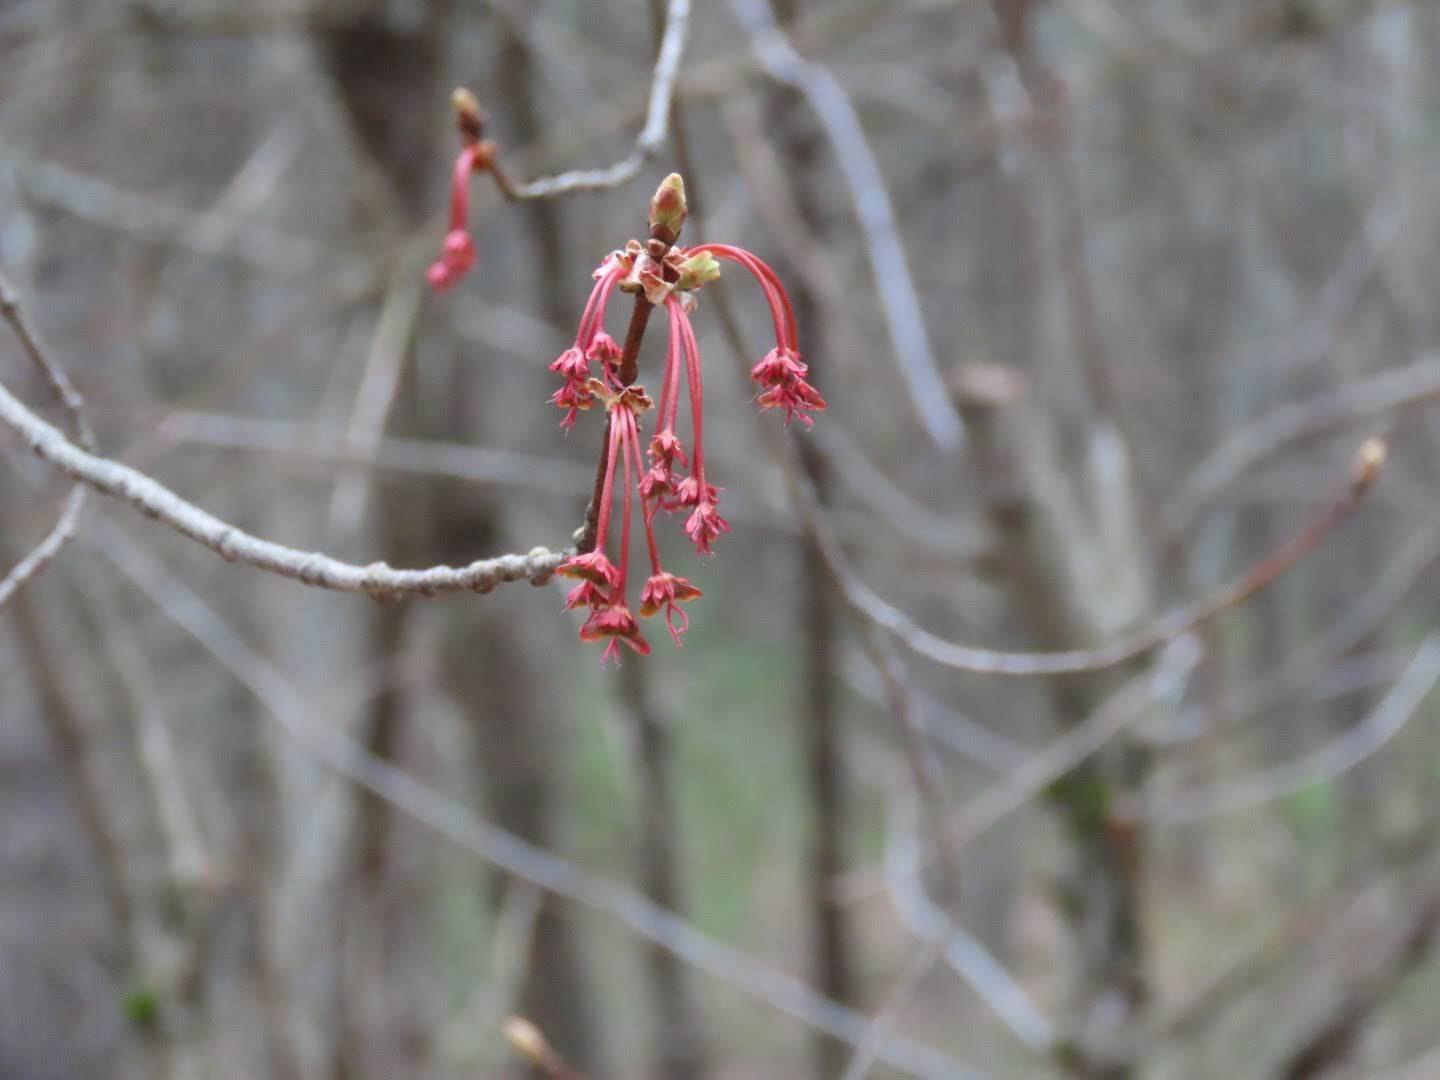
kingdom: Plantae
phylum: Tracheophyta
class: Magnoliopsida
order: Sapindales
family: Sapindaceae
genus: Acer
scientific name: Acer rubrum
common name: Red maple
